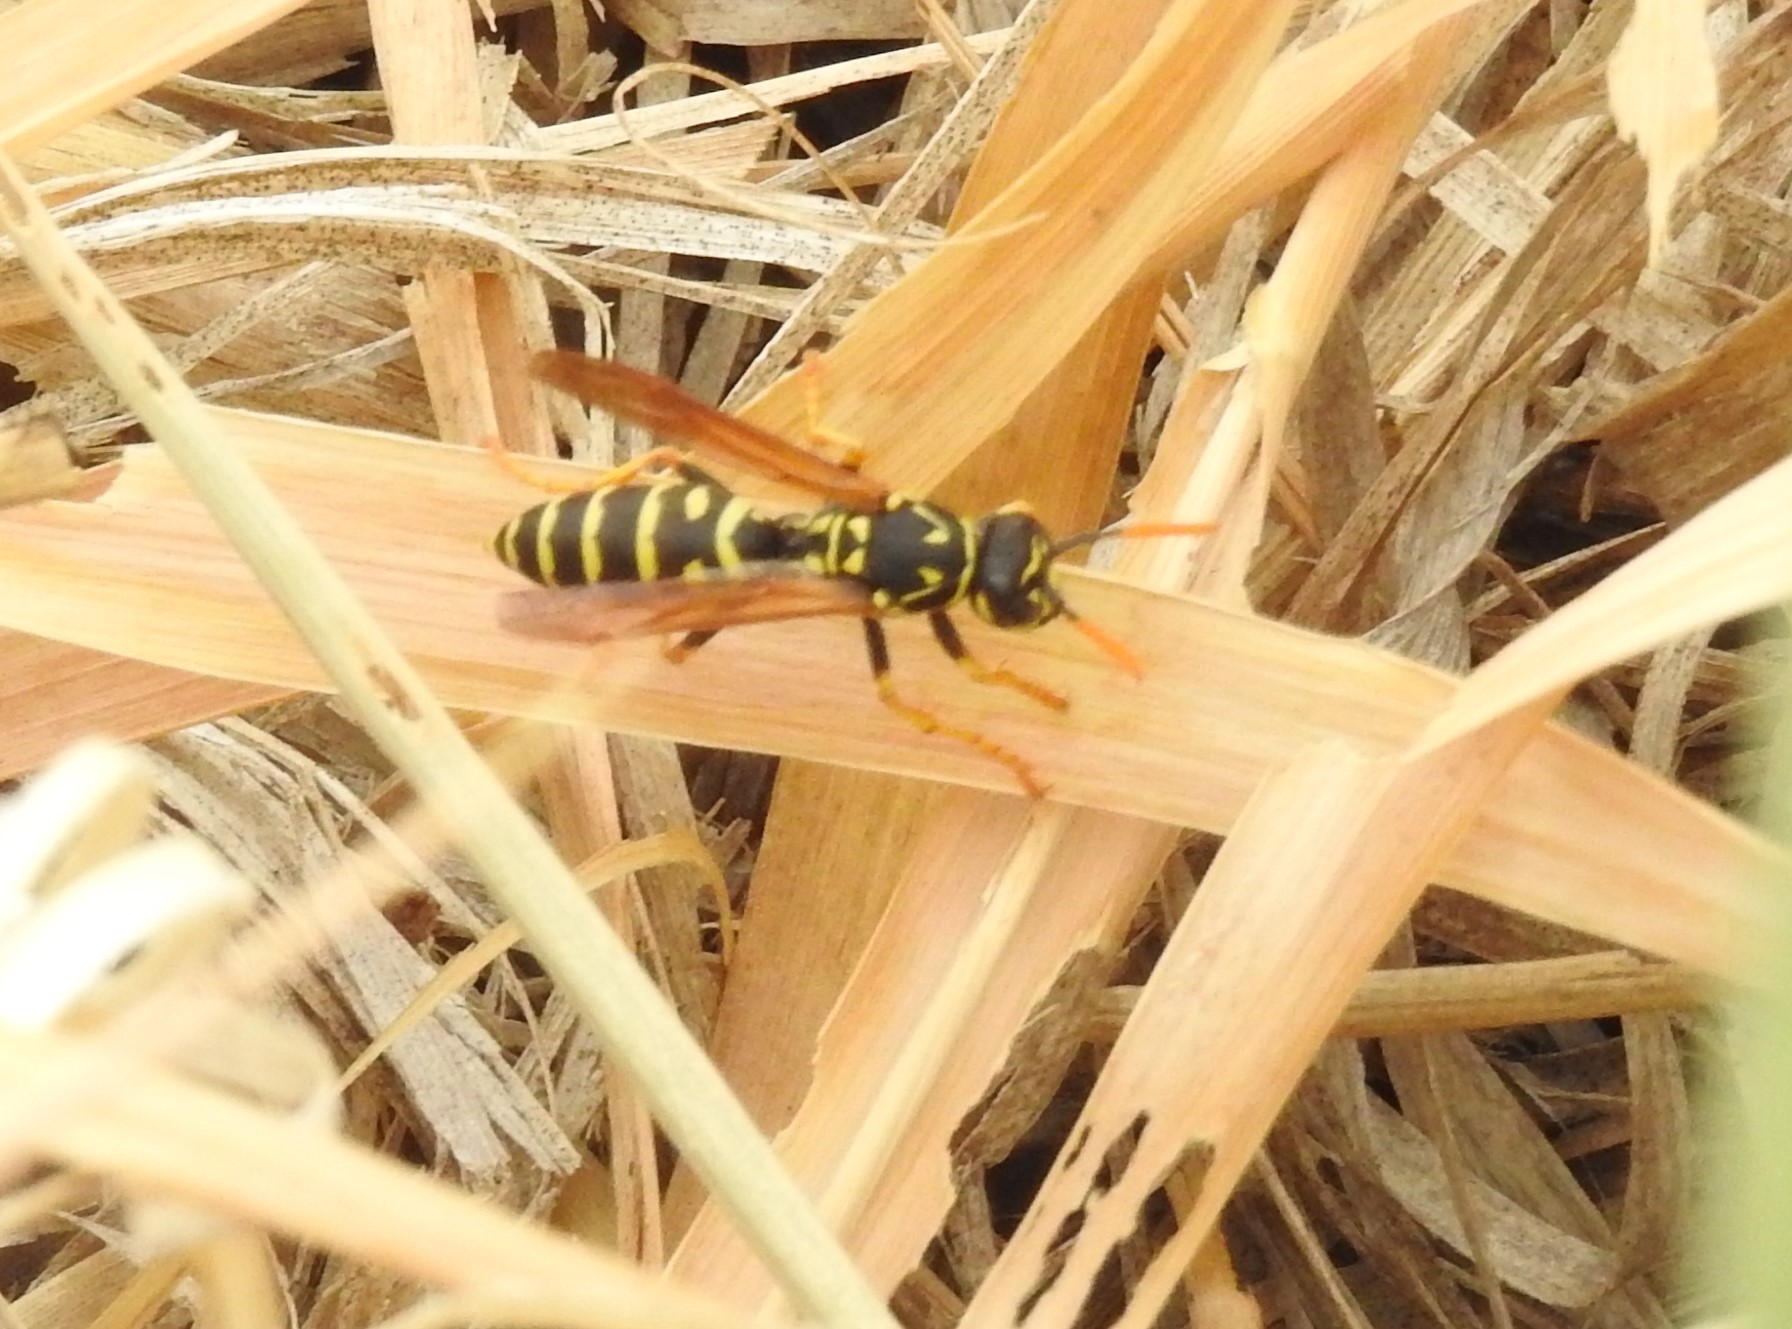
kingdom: Animalia
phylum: Arthropoda
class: Insecta
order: Hymenoptera
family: Eumenidae
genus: Polistes
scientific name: Polistes dominula
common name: Paper wasp
